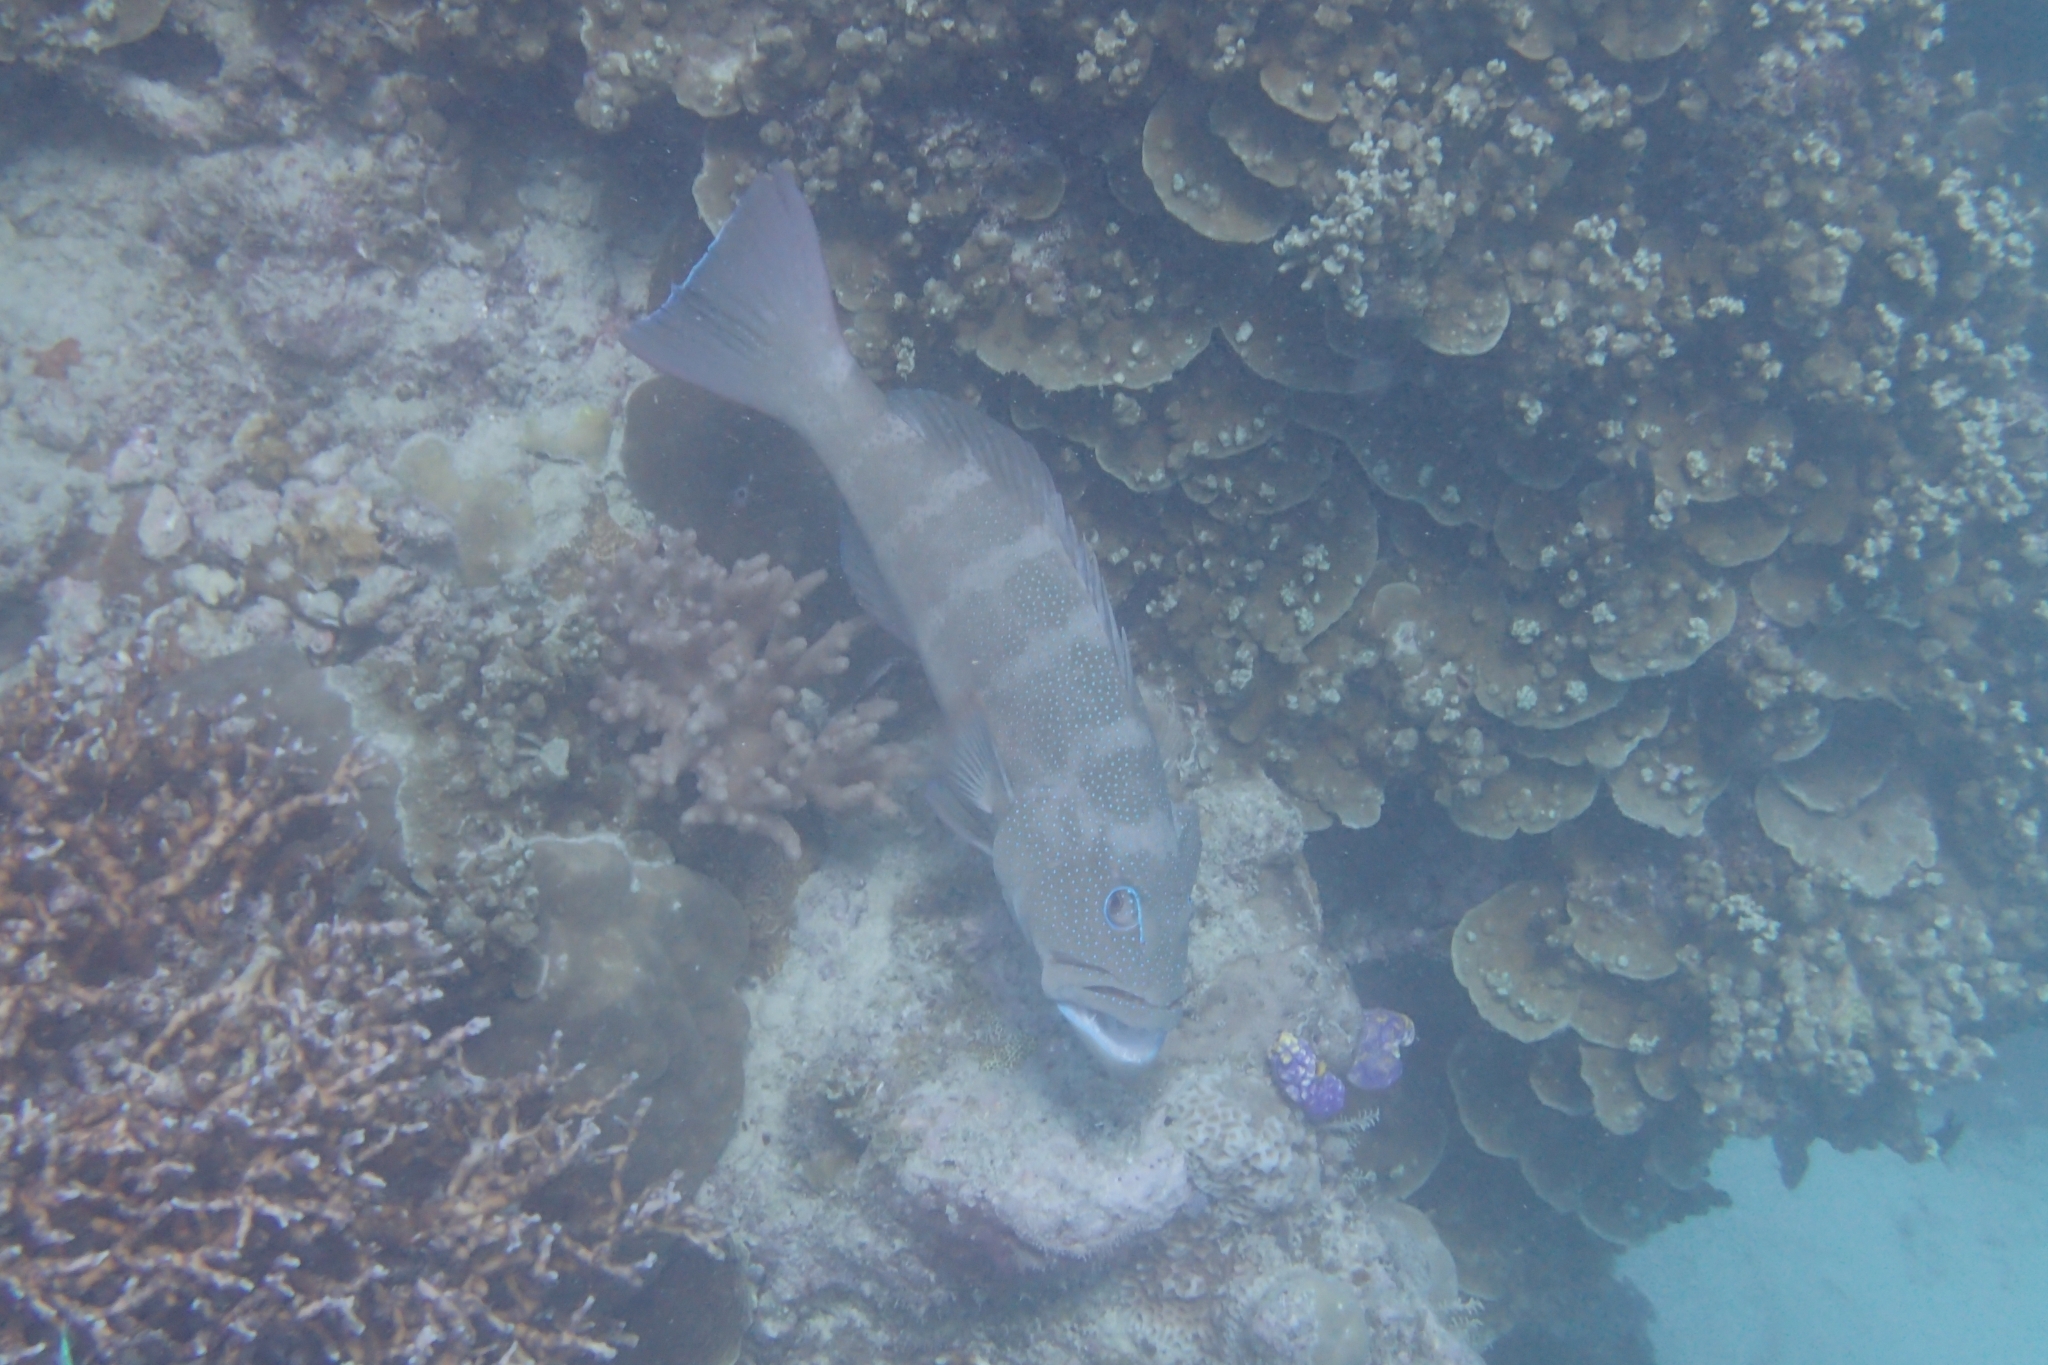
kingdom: Animalia
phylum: Chordata
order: Perciformes
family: Serranidae
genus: Plectropomus
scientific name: Plectropomus leopardus
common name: Coral trout
